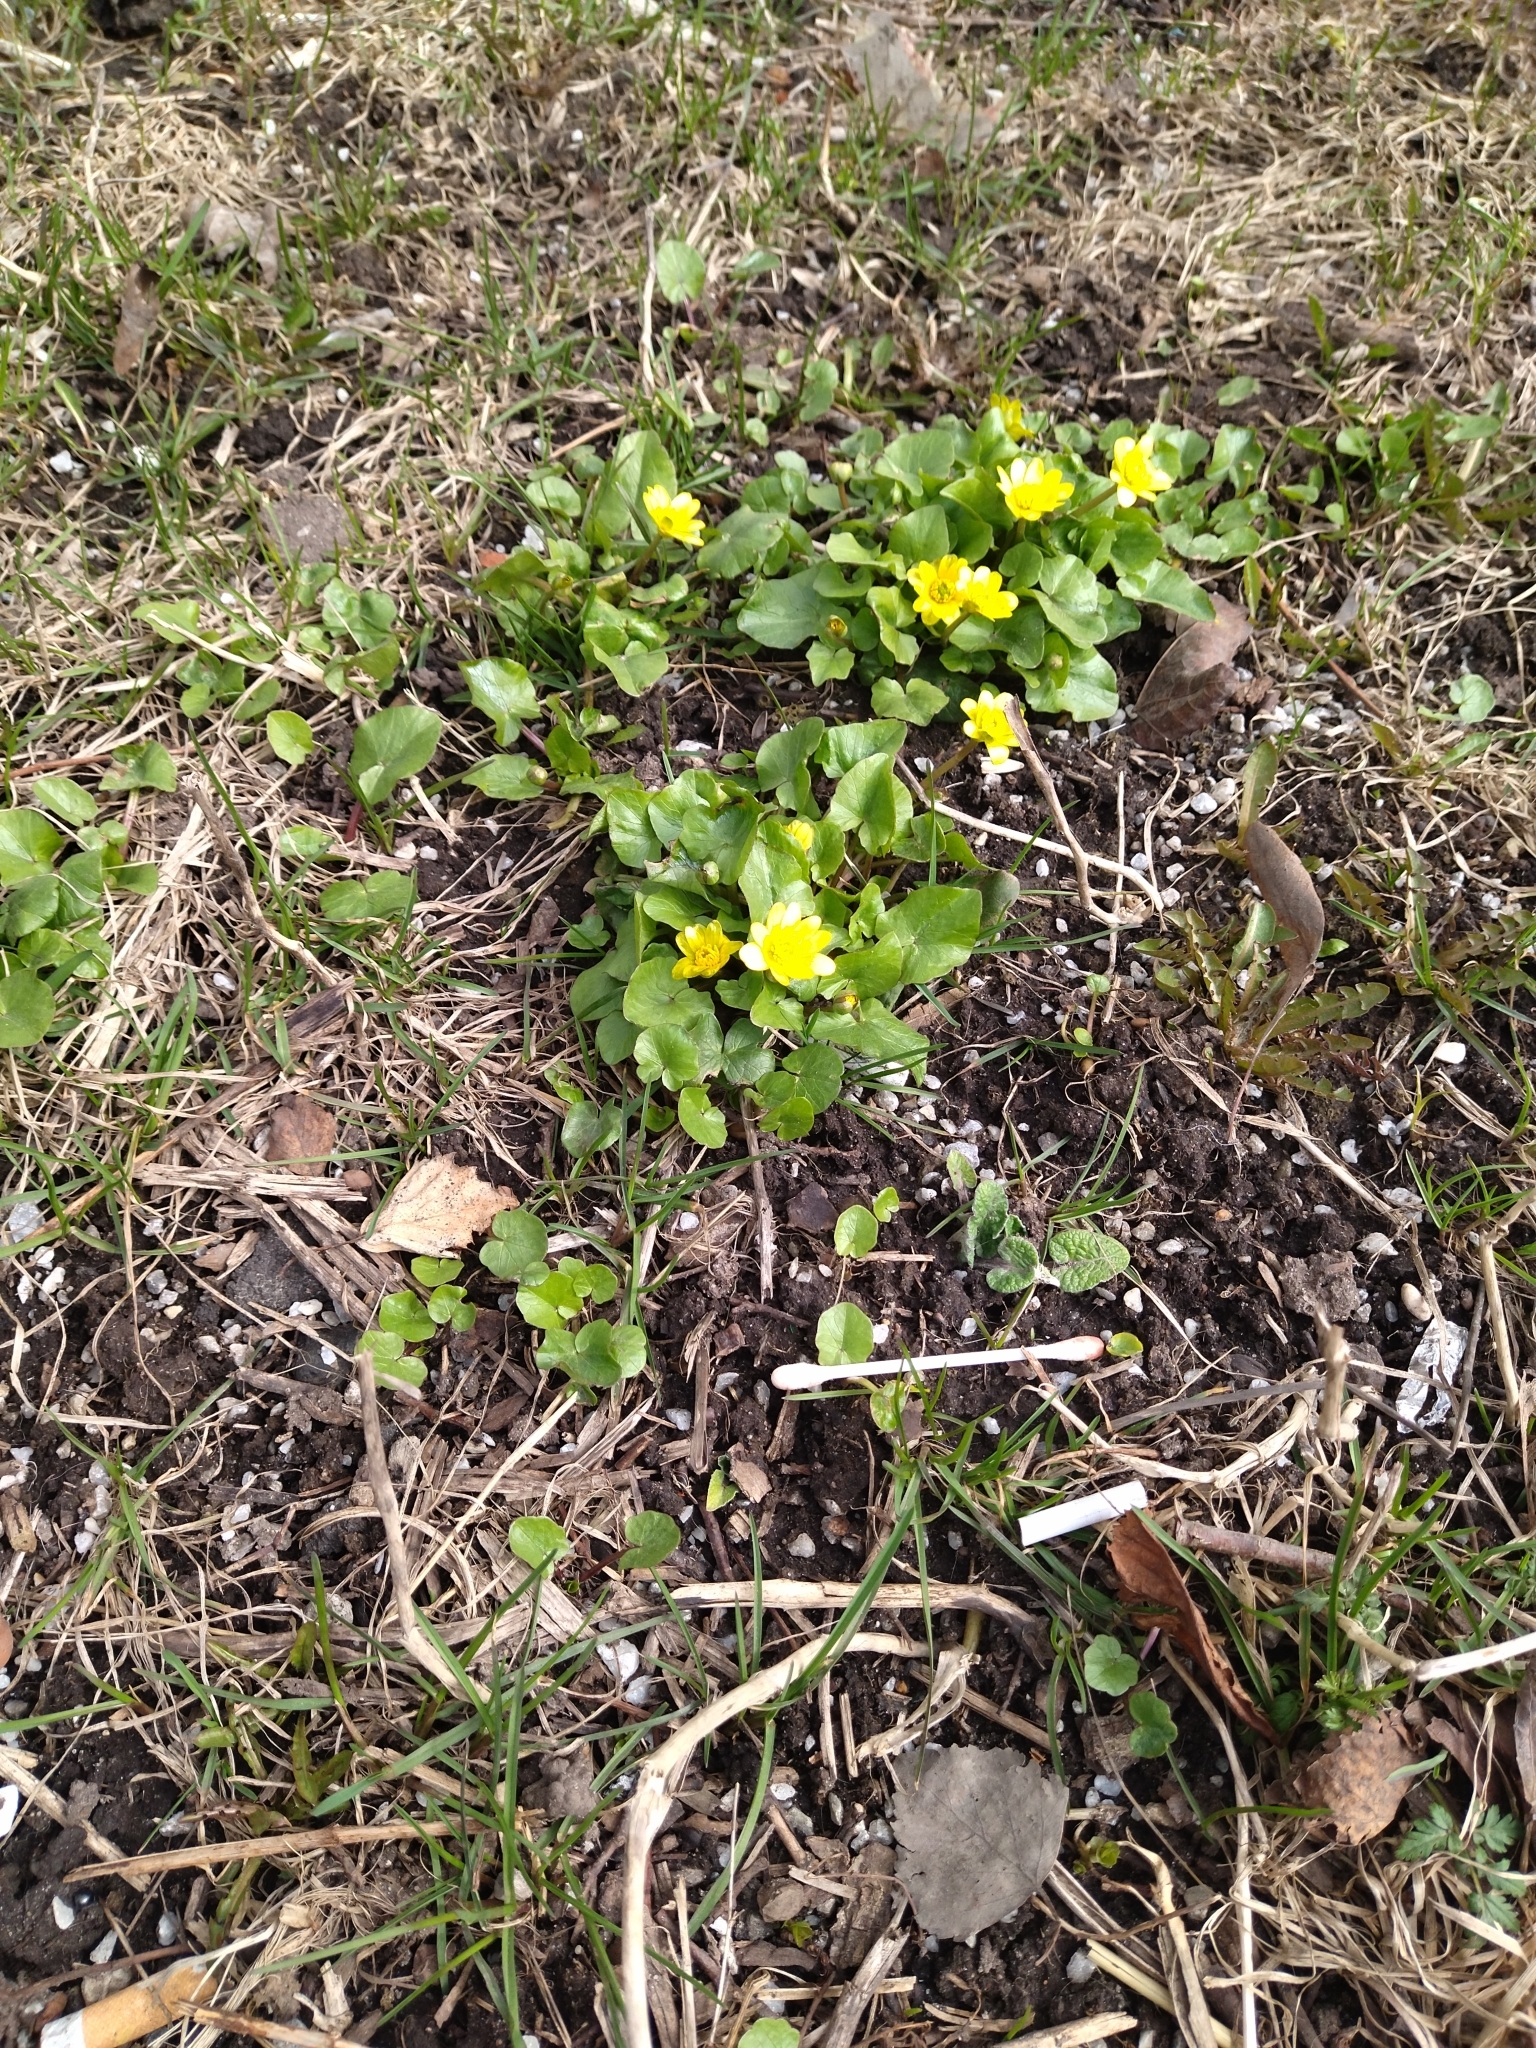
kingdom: Plantae
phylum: Tracheophyta
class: Magnoliopsida
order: Ranunculales
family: Ranunculaceae
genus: Ficaria
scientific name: Ficaria verna
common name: Lesser celandine
